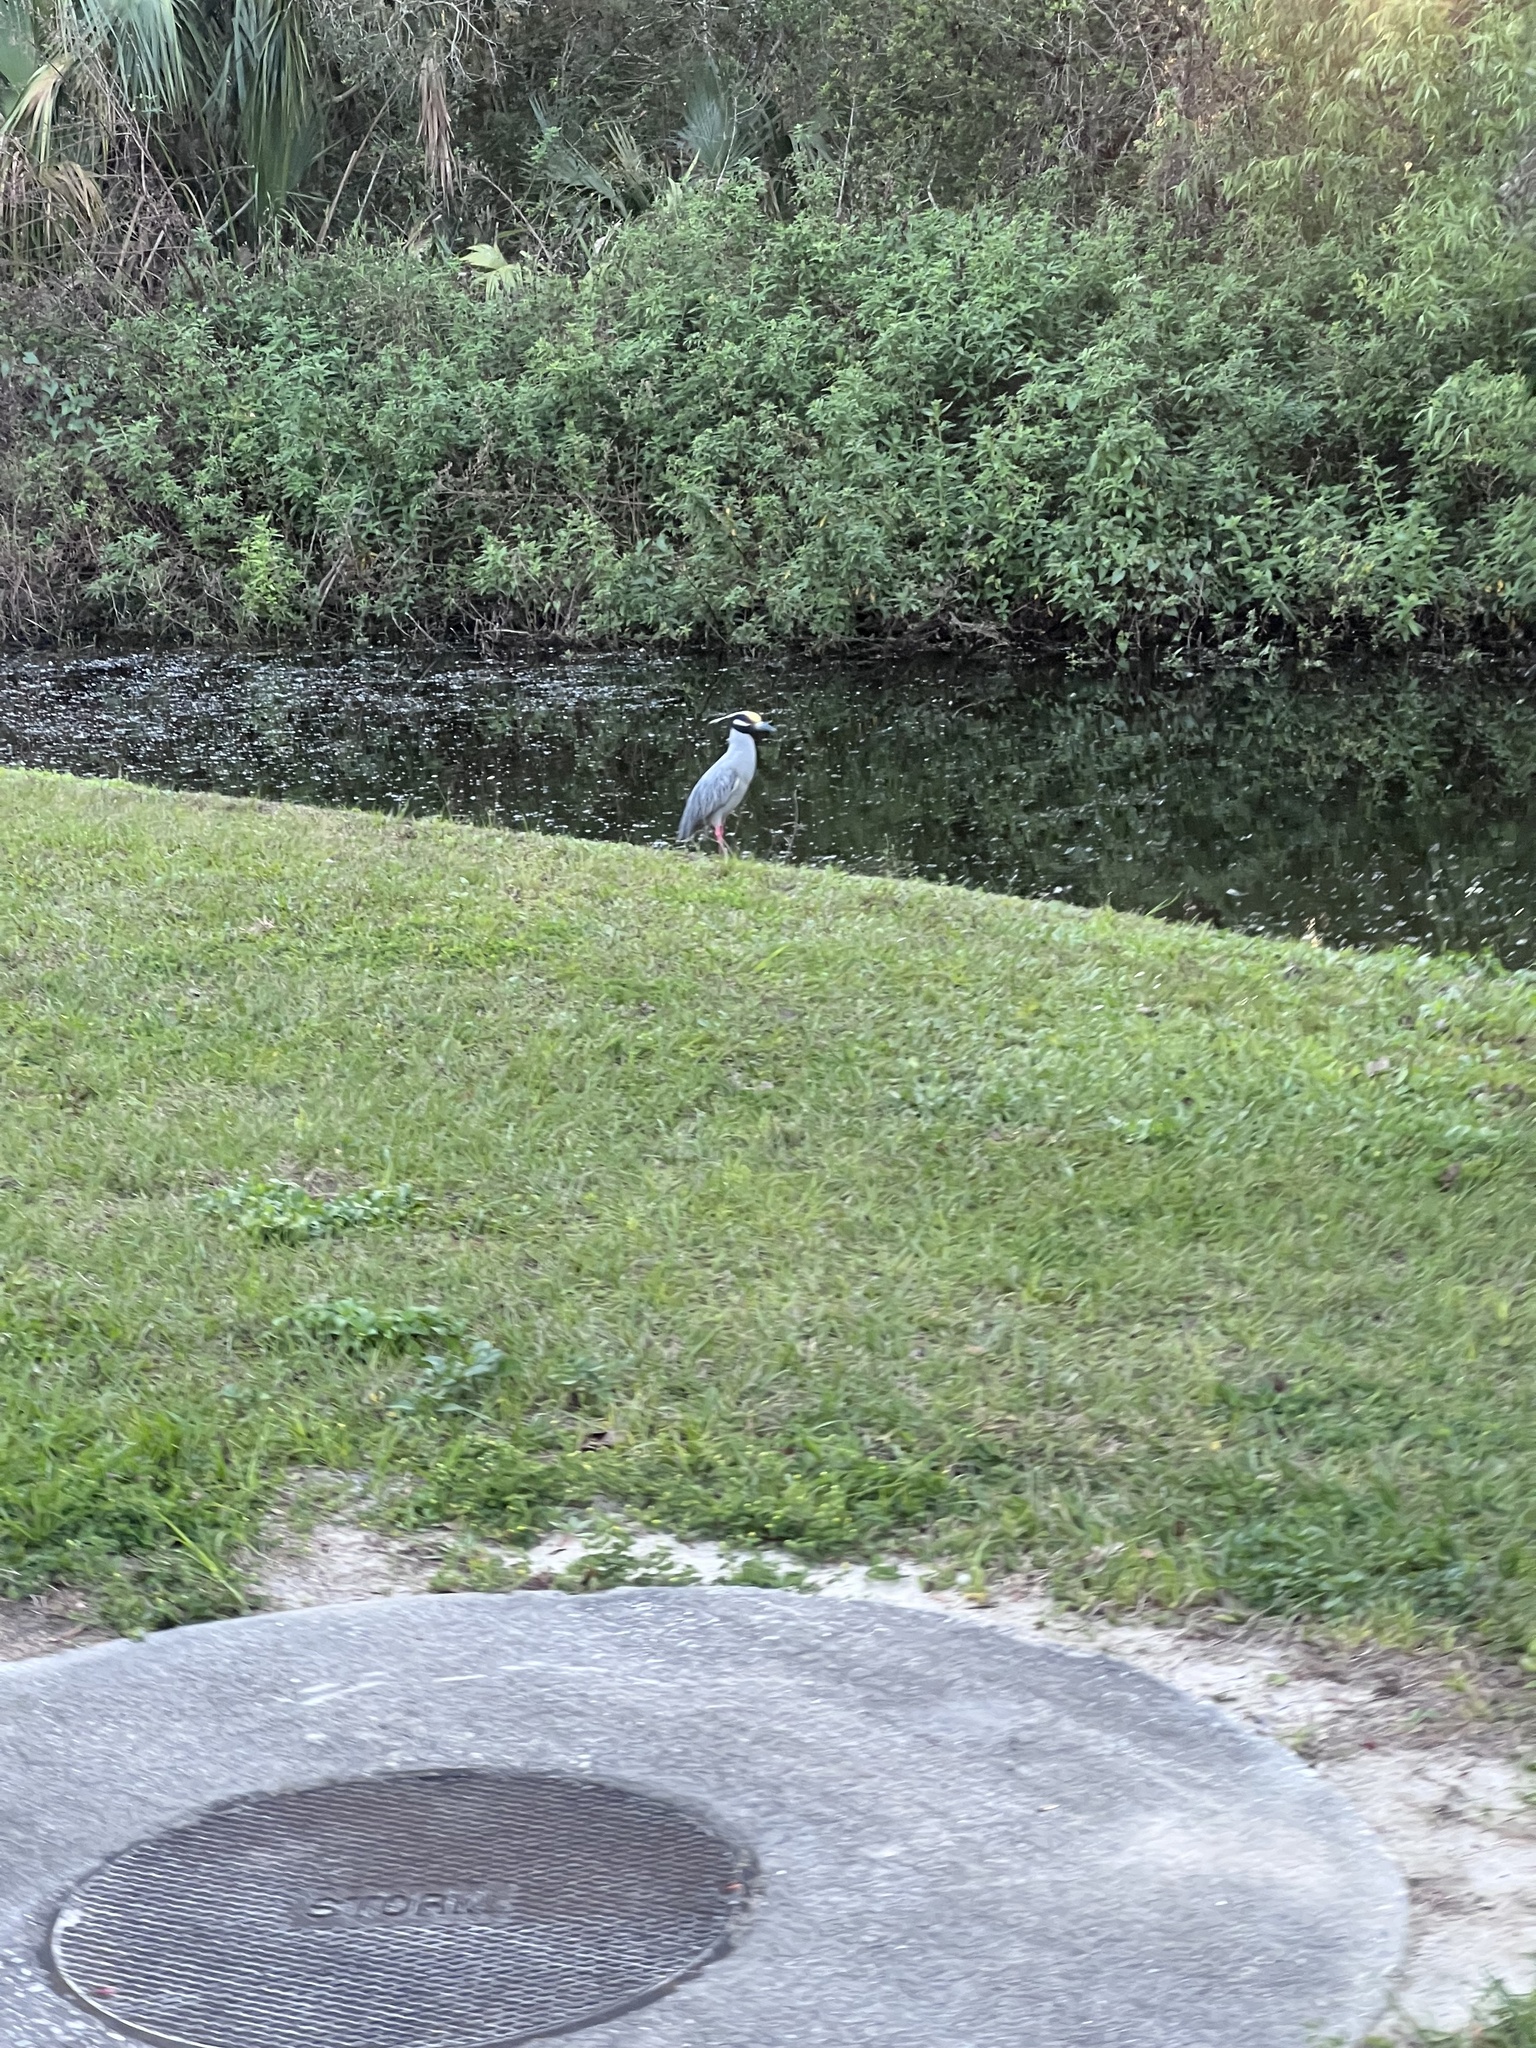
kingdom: Animalia
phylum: Chordata
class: Aves
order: Pelecaniformes
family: Ardeidae
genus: Nyctanassa
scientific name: Nyctanassa violacea
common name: Yellow-crowned night heron
